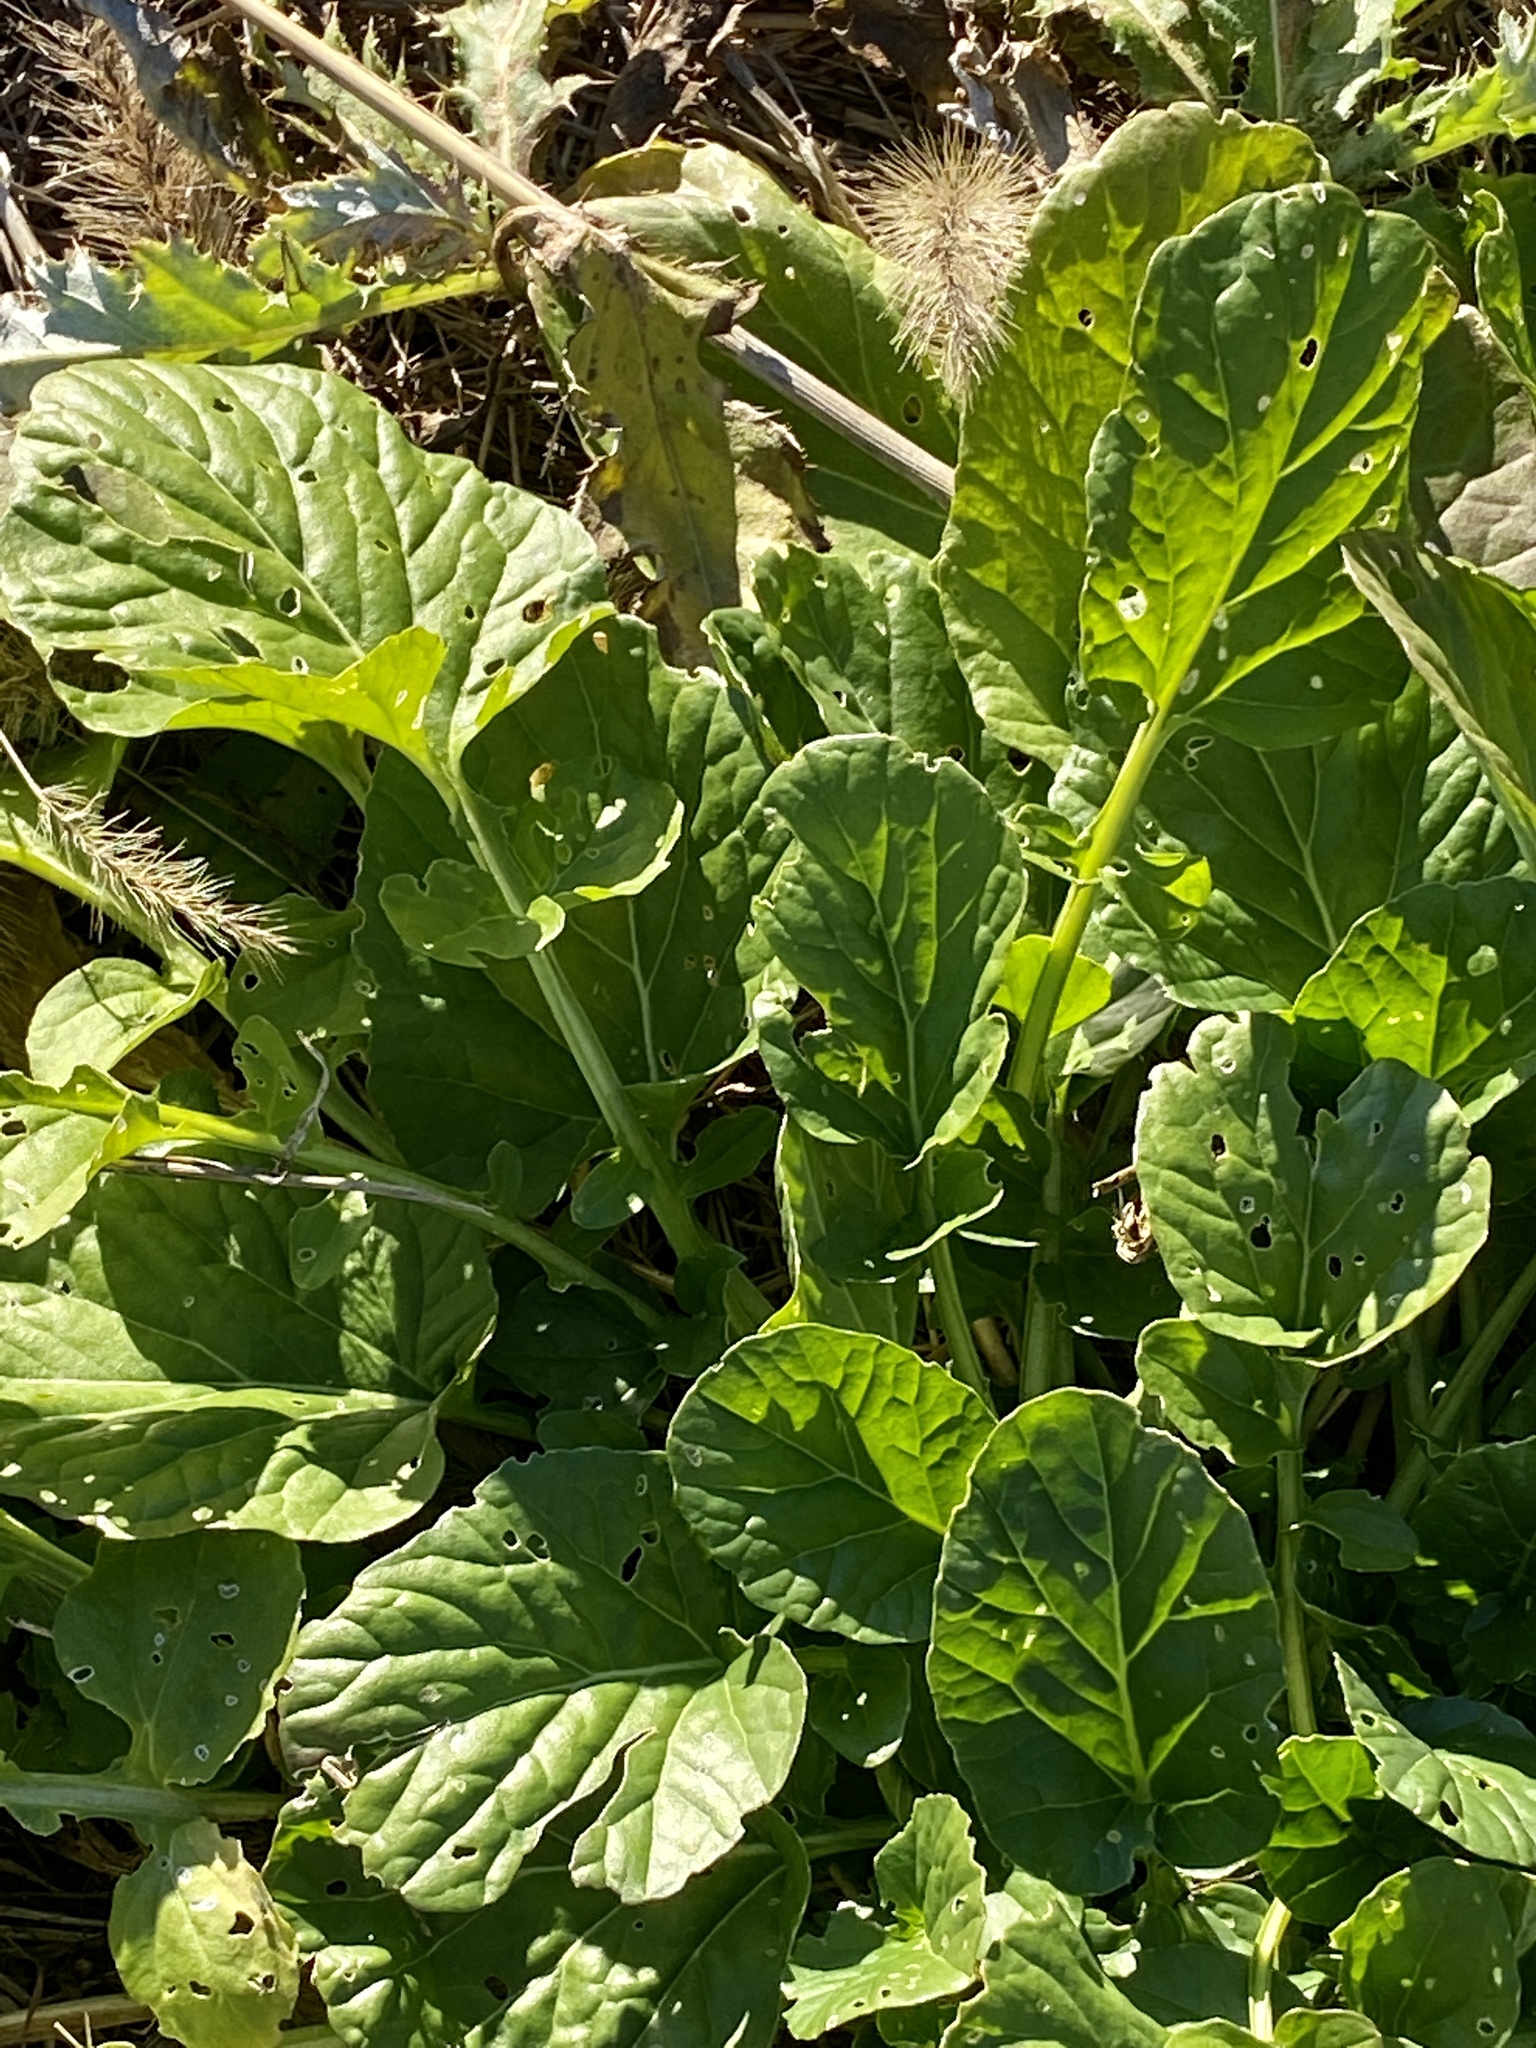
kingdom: Plantae
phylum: Tracheophyta
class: Magnoliopsida
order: Brassicales
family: Brassicaceae
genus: Barbarea
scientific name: Barbarea vulgaris
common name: Cressy-greens
